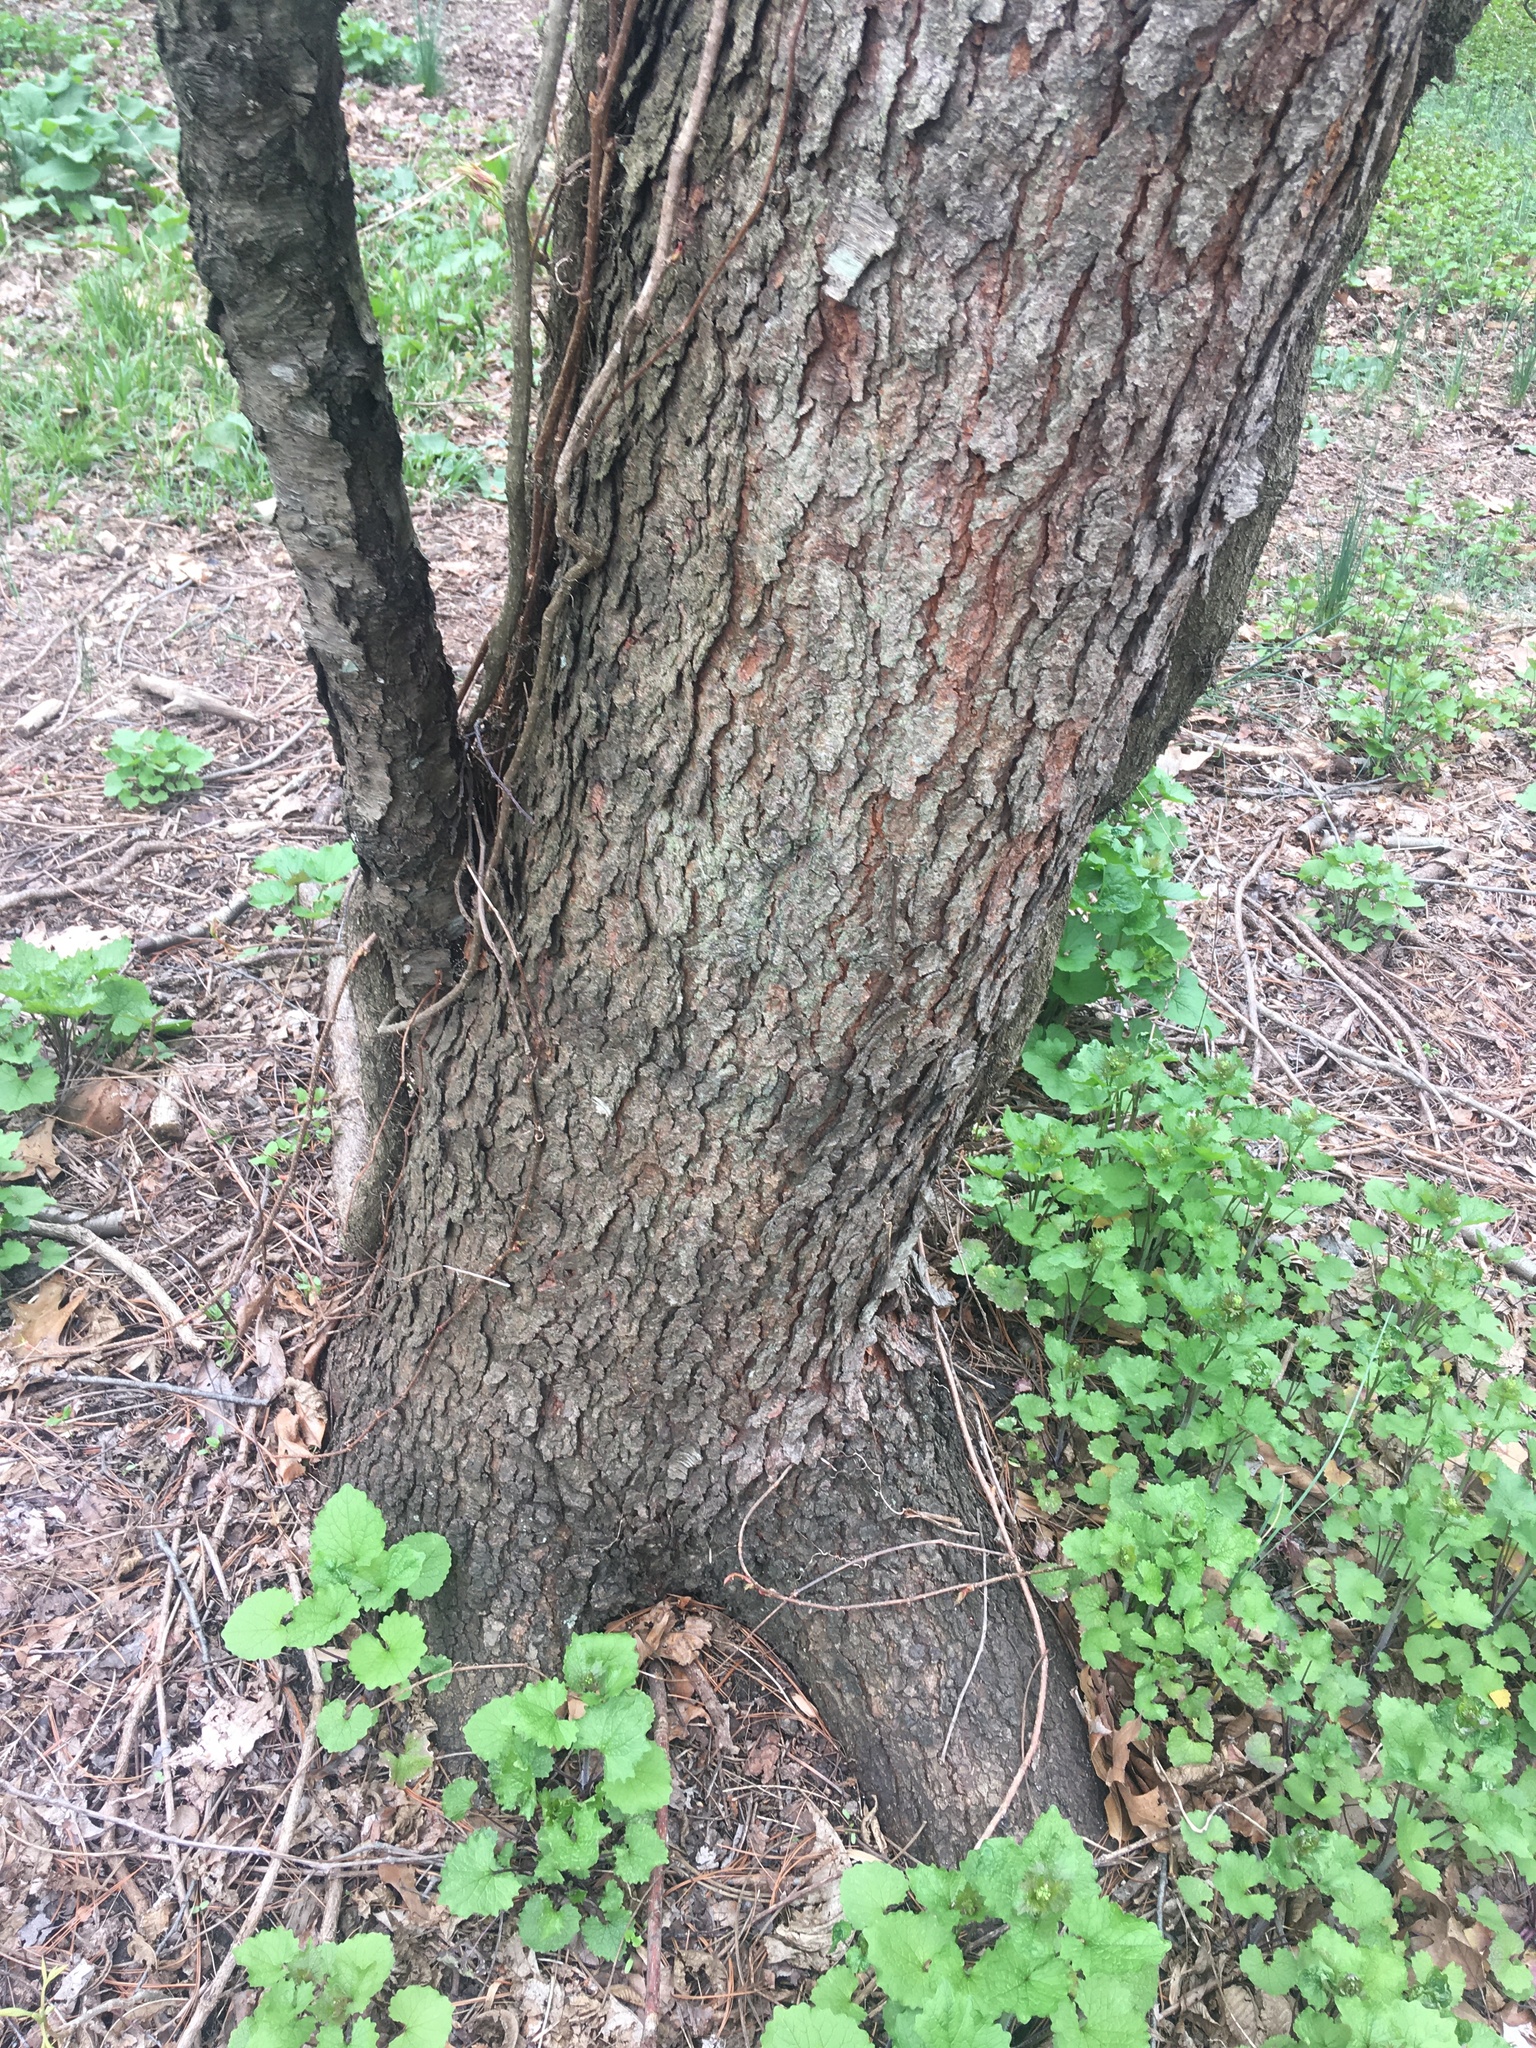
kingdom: Plantae
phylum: Tracheophyta
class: Magnoliopsida
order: Rosales
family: Rosaceae
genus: Prunus
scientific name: Prunus serotina
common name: Black cherry
